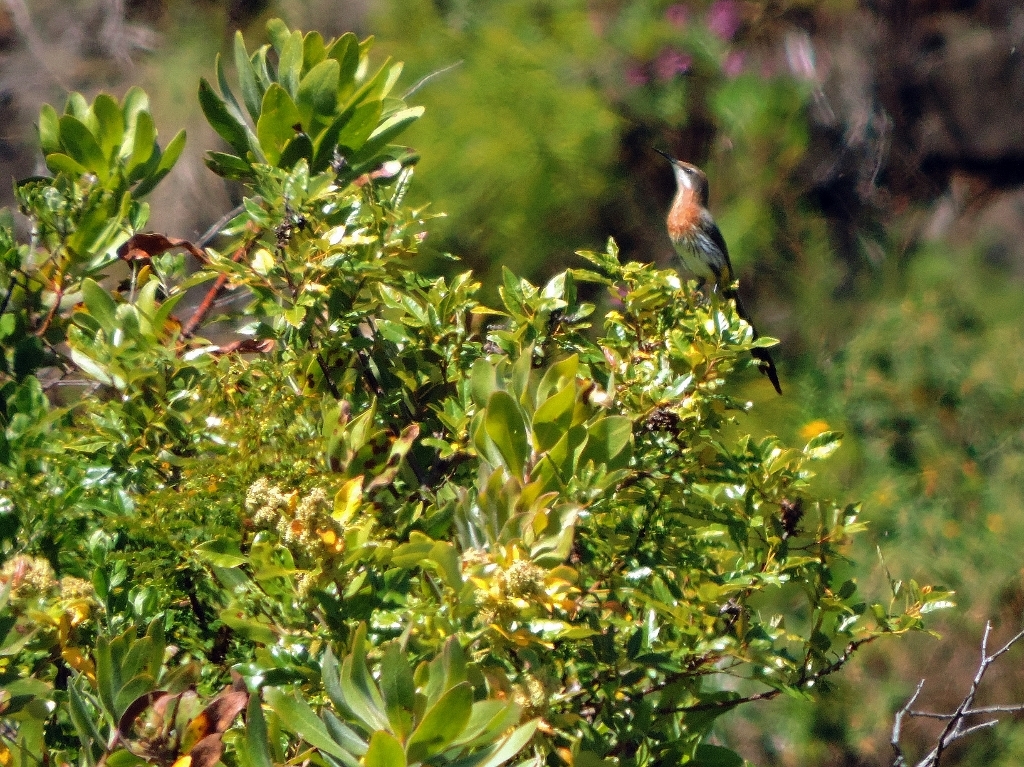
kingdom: Animalia
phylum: Chordata
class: Aves
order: Passeriformes
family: Promeropidae
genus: Promerops
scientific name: Promerops gurneyi
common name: Gurney's sugarbird
